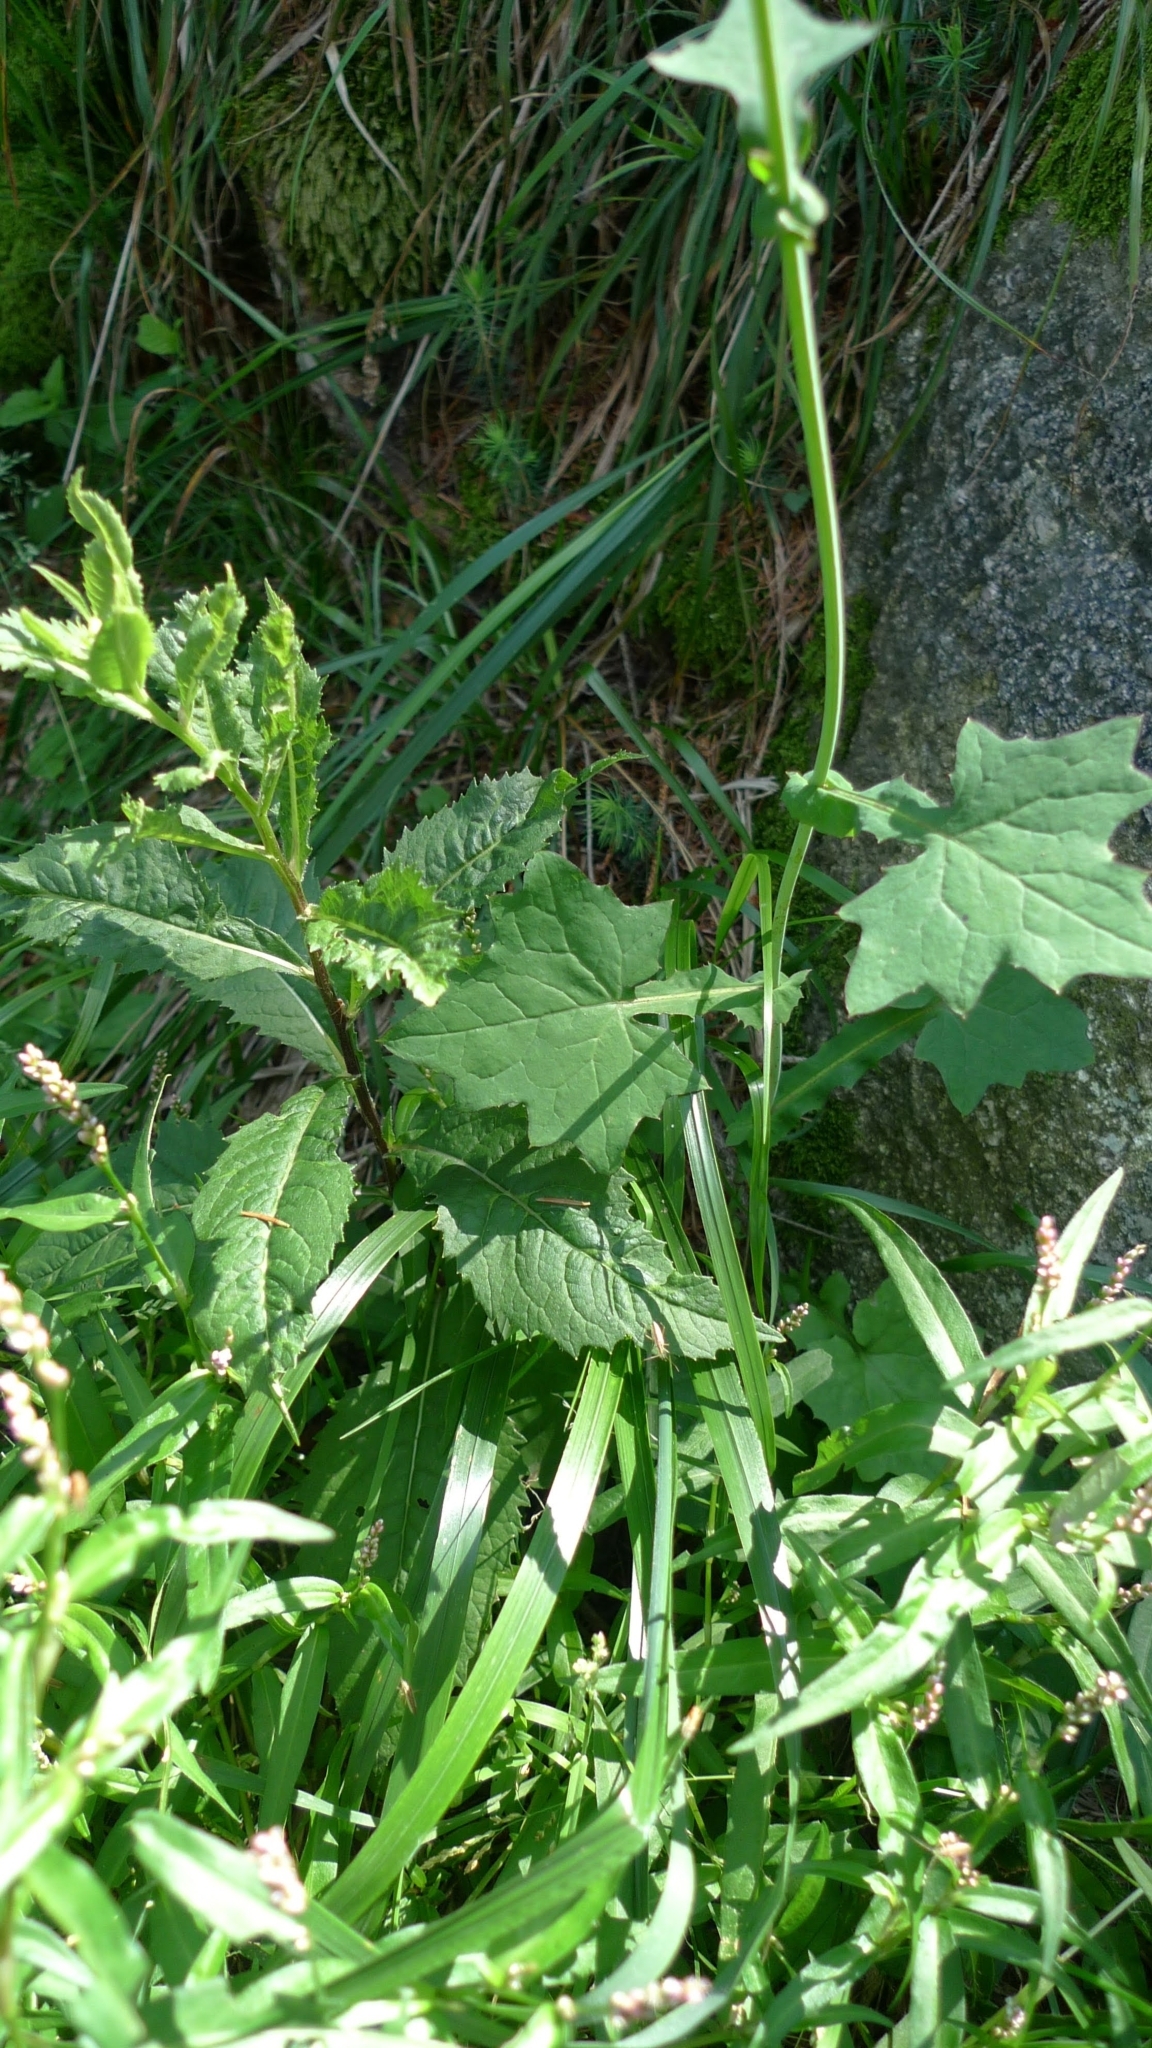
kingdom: Plantae
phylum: Tracheophyta
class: Magnoliopsida
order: Asterales
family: Asteraceae
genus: Mycelis
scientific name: Mycelis muralis
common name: Wall lettuce
